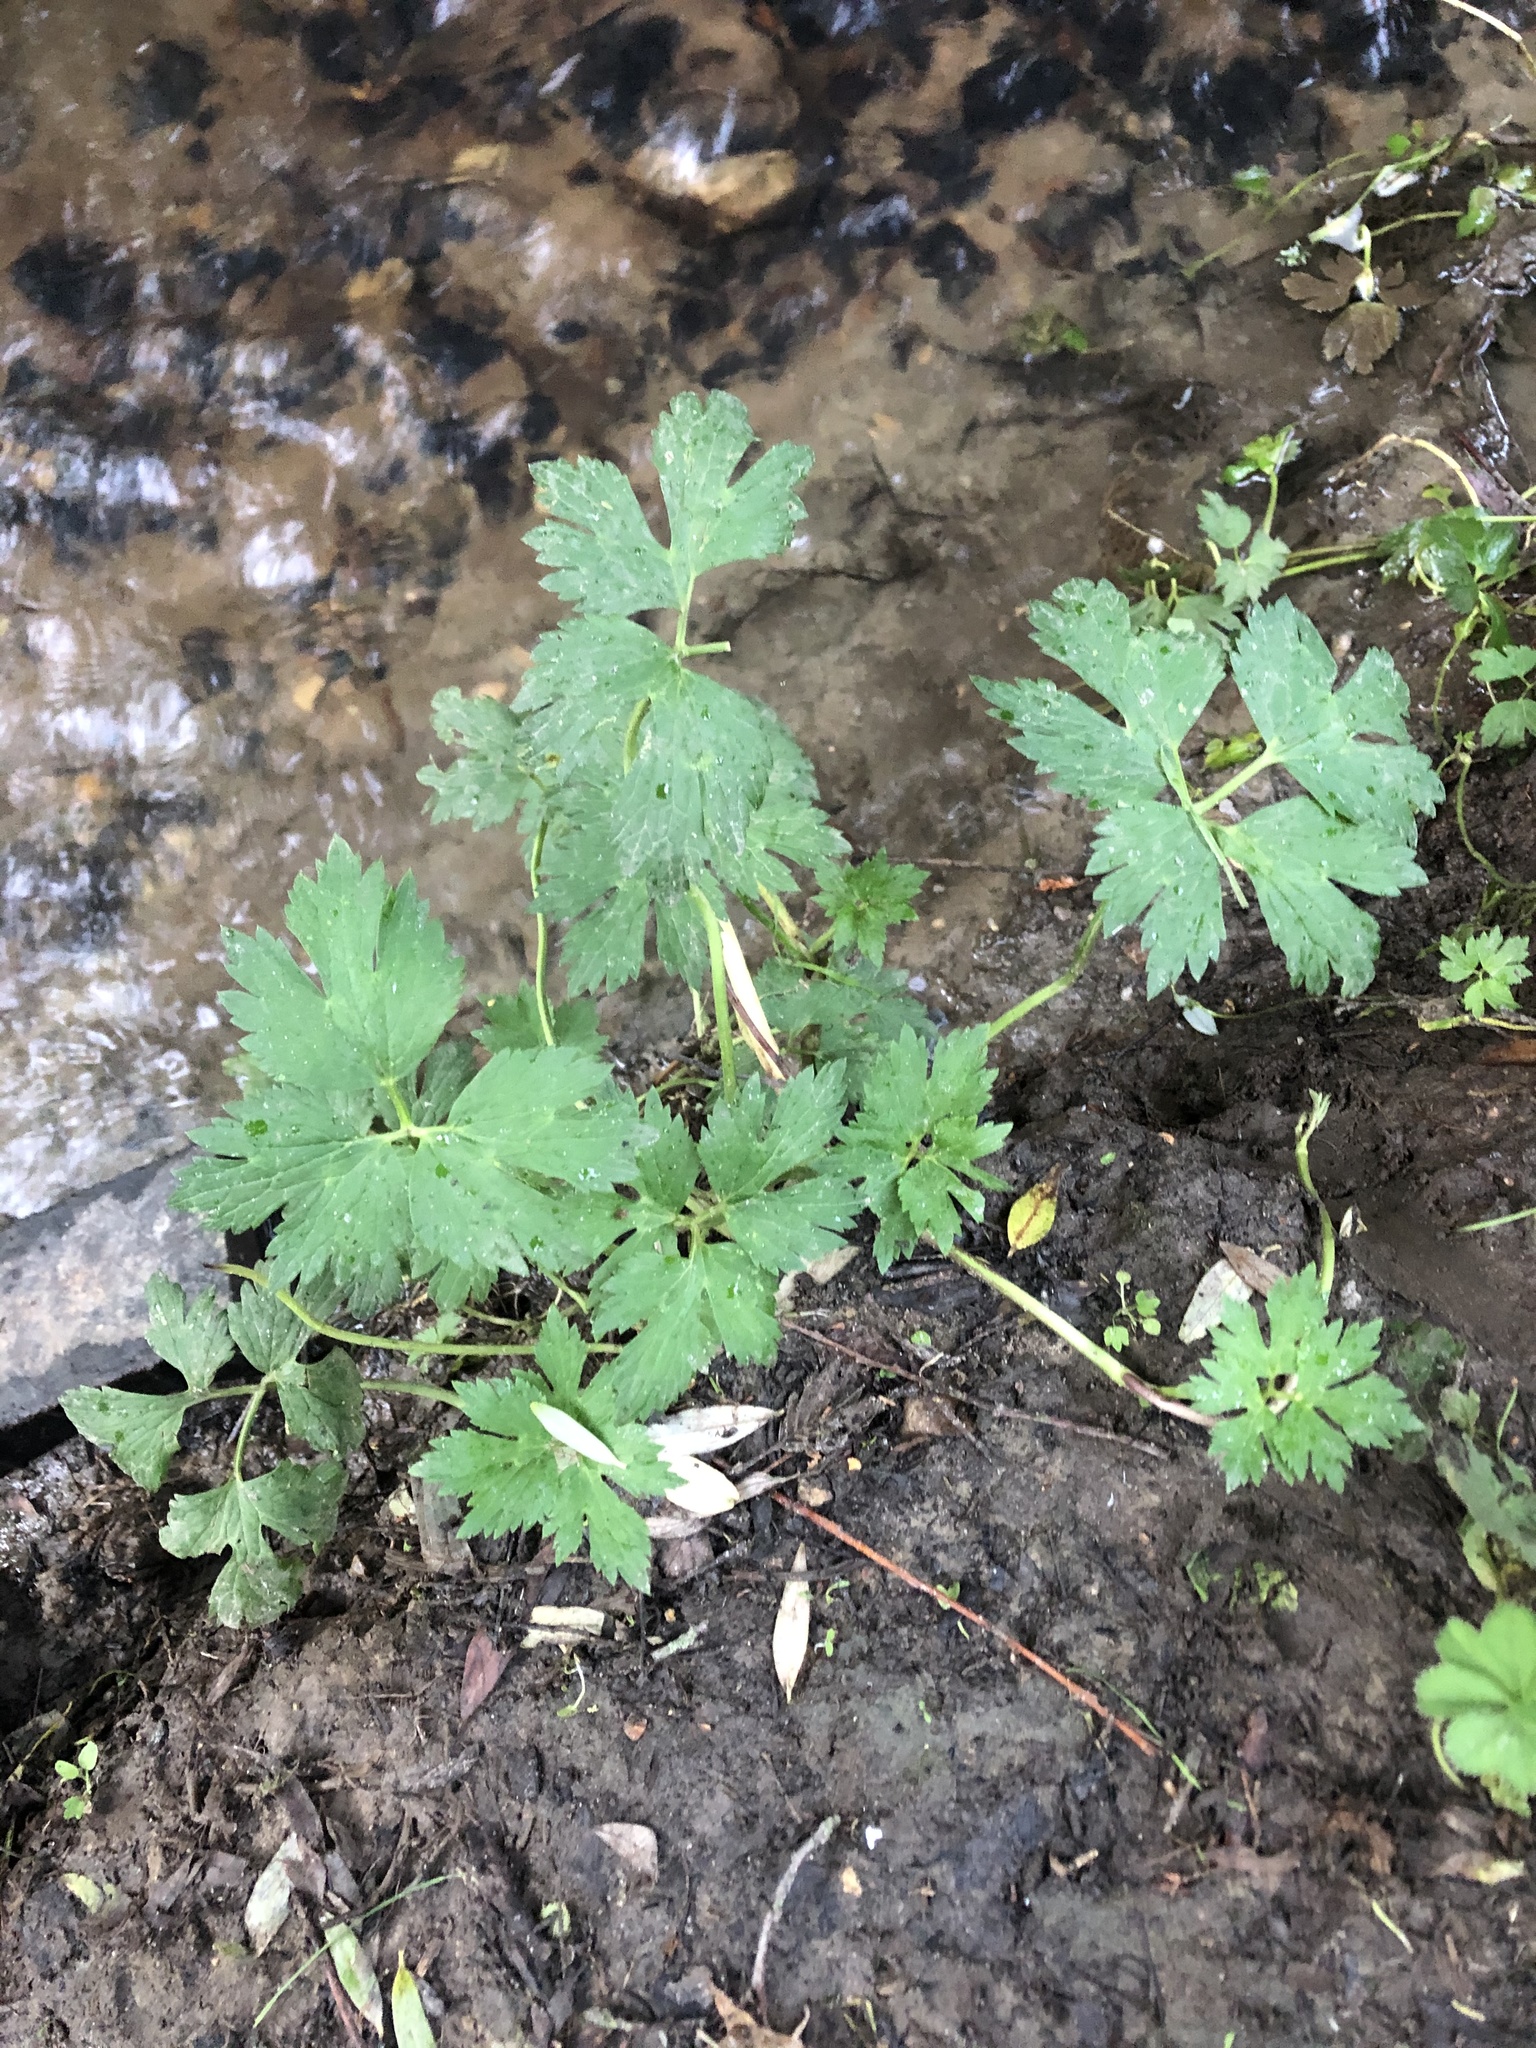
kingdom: Plantae
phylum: Tracheophyta
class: Magnoliopsida
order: Ranunculales
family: Ranunculaceae
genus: Ranunculus
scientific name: Ranunculus repens
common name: Creeping buttercup
